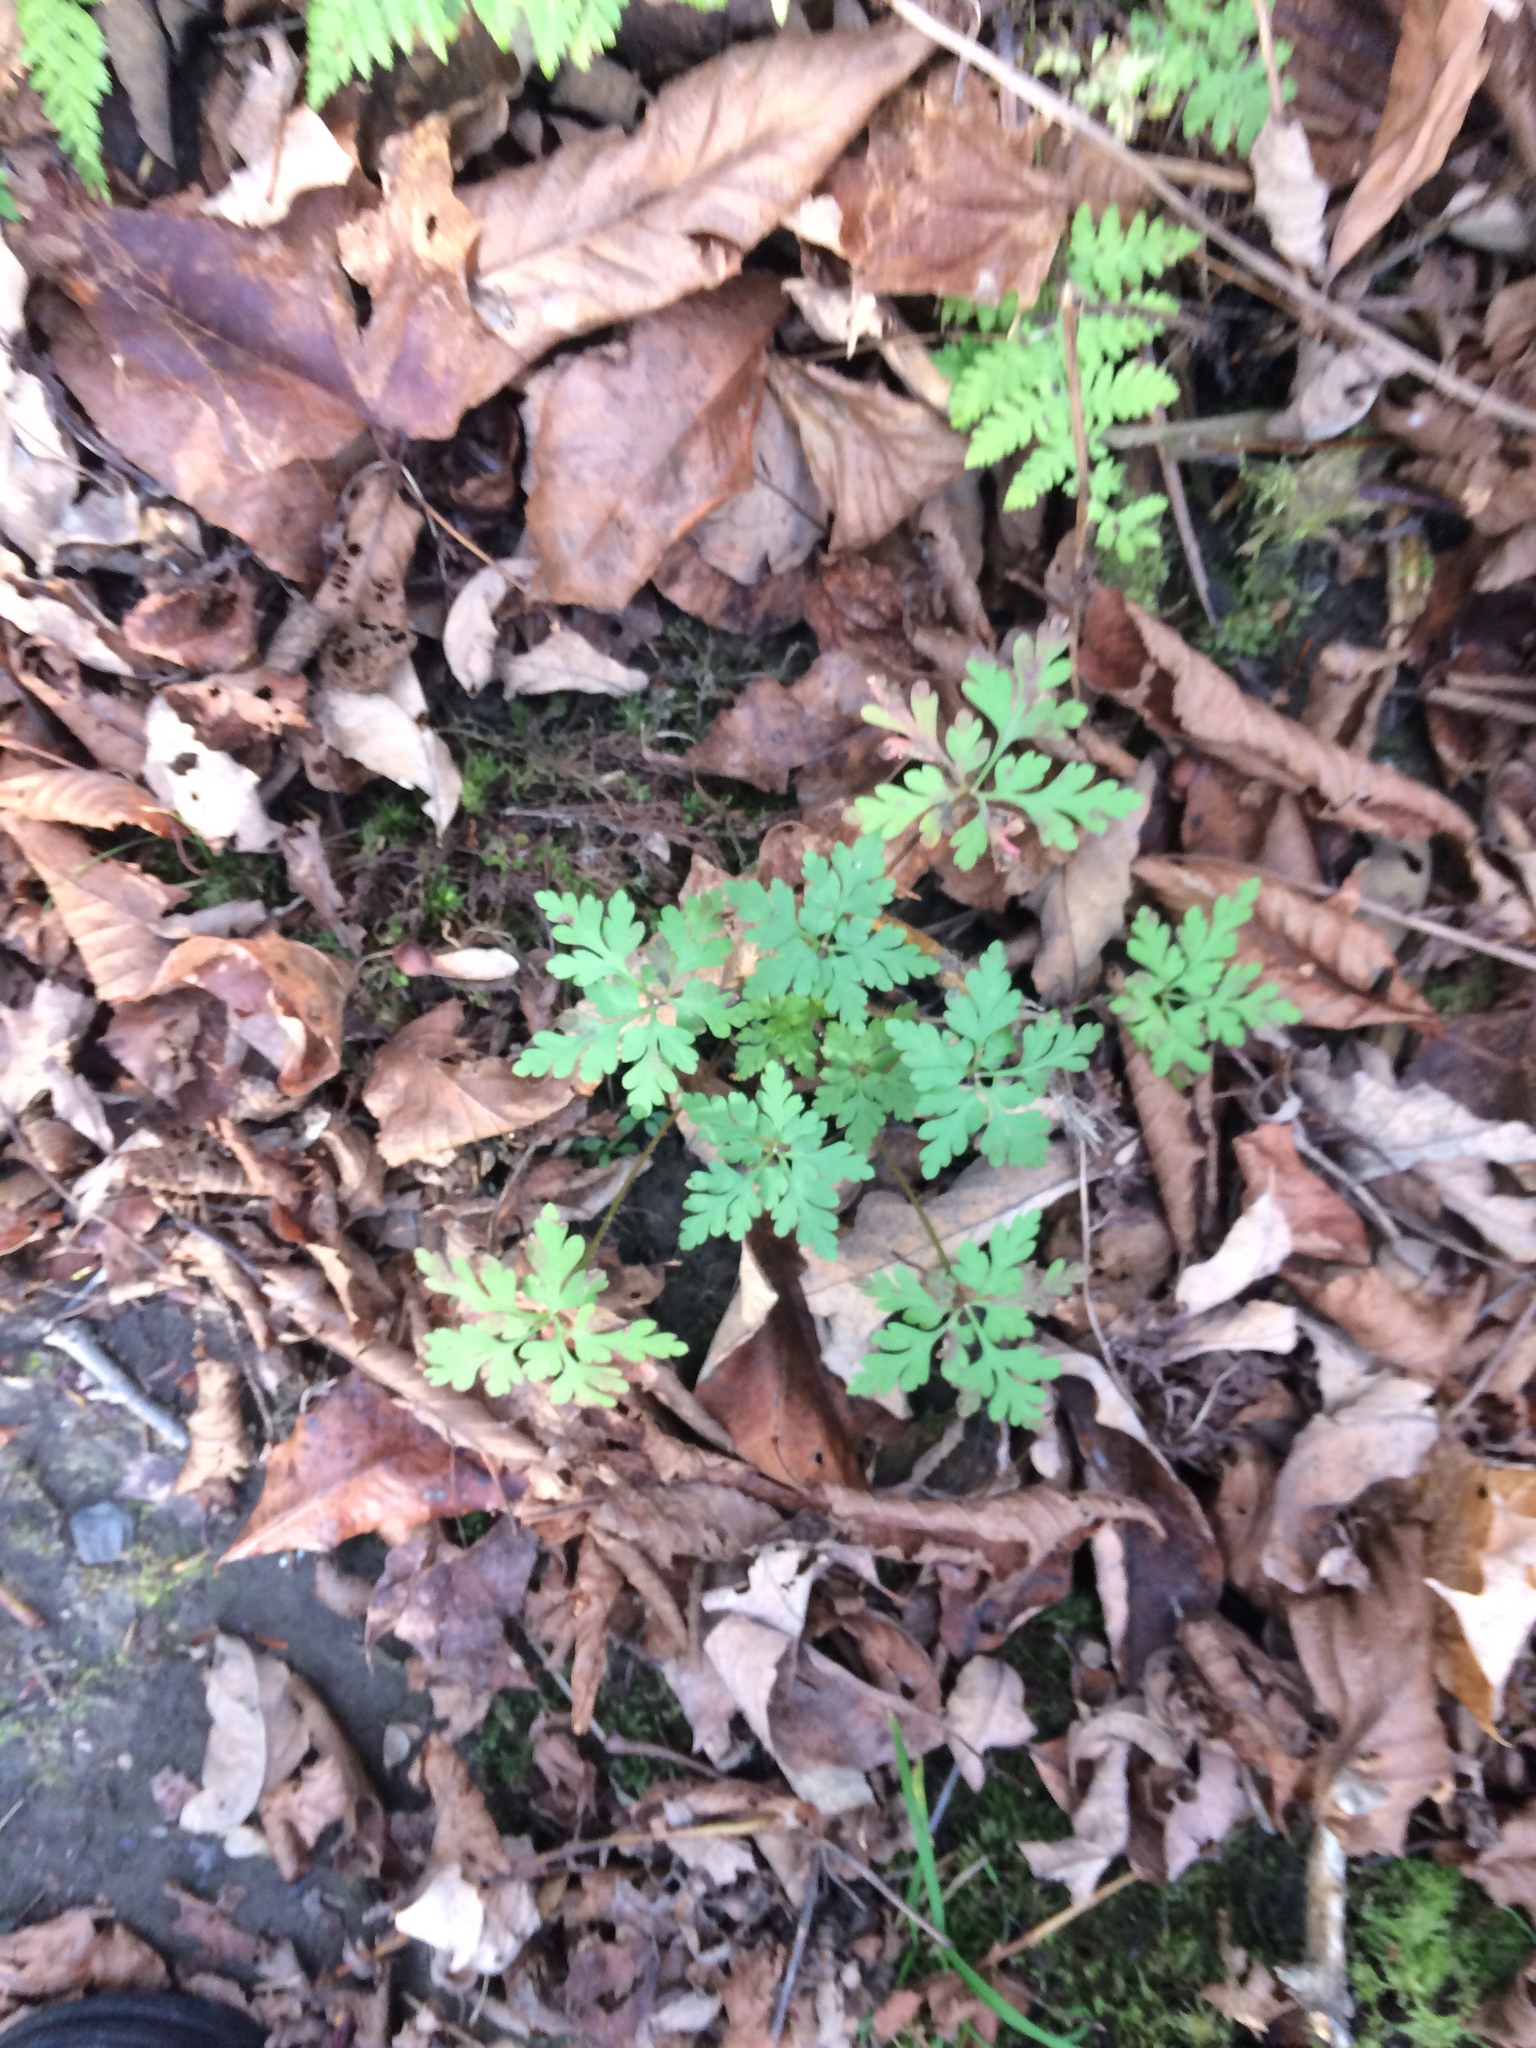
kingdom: Plantae
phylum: Tracheophyta
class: Magnoliopsida
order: Geraniales
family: Geraniaceae
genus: Geranium
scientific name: Geranium robertianum
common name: Herb-robert
